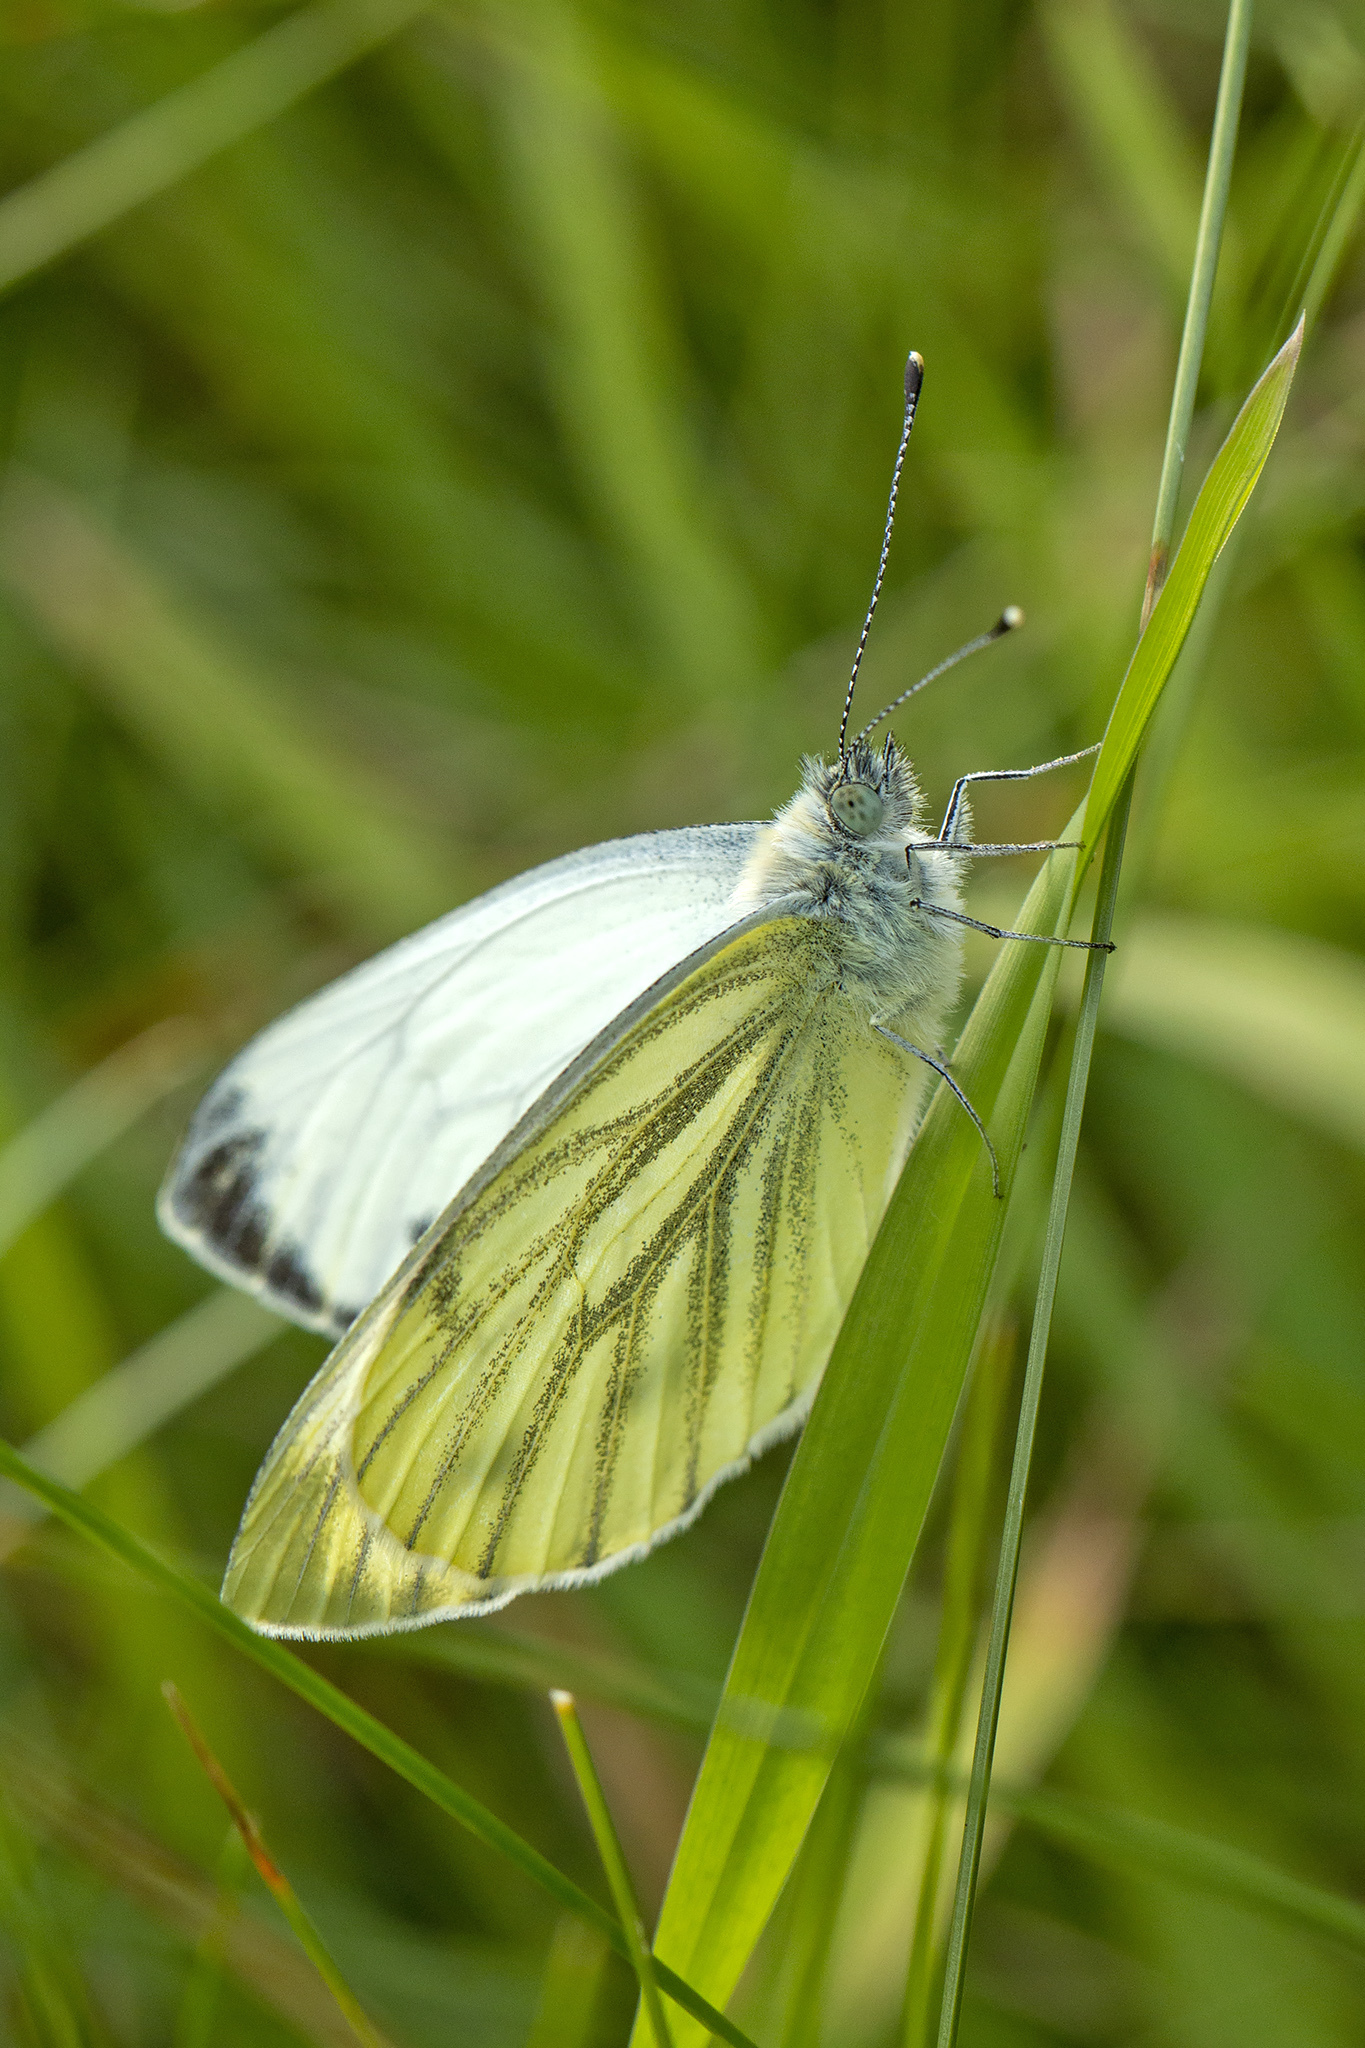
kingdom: Animalia
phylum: Arthropoda
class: Insecta
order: Lepidoptera
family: Pieridae
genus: Pieris
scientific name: Pieris napi
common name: Green-veined white
